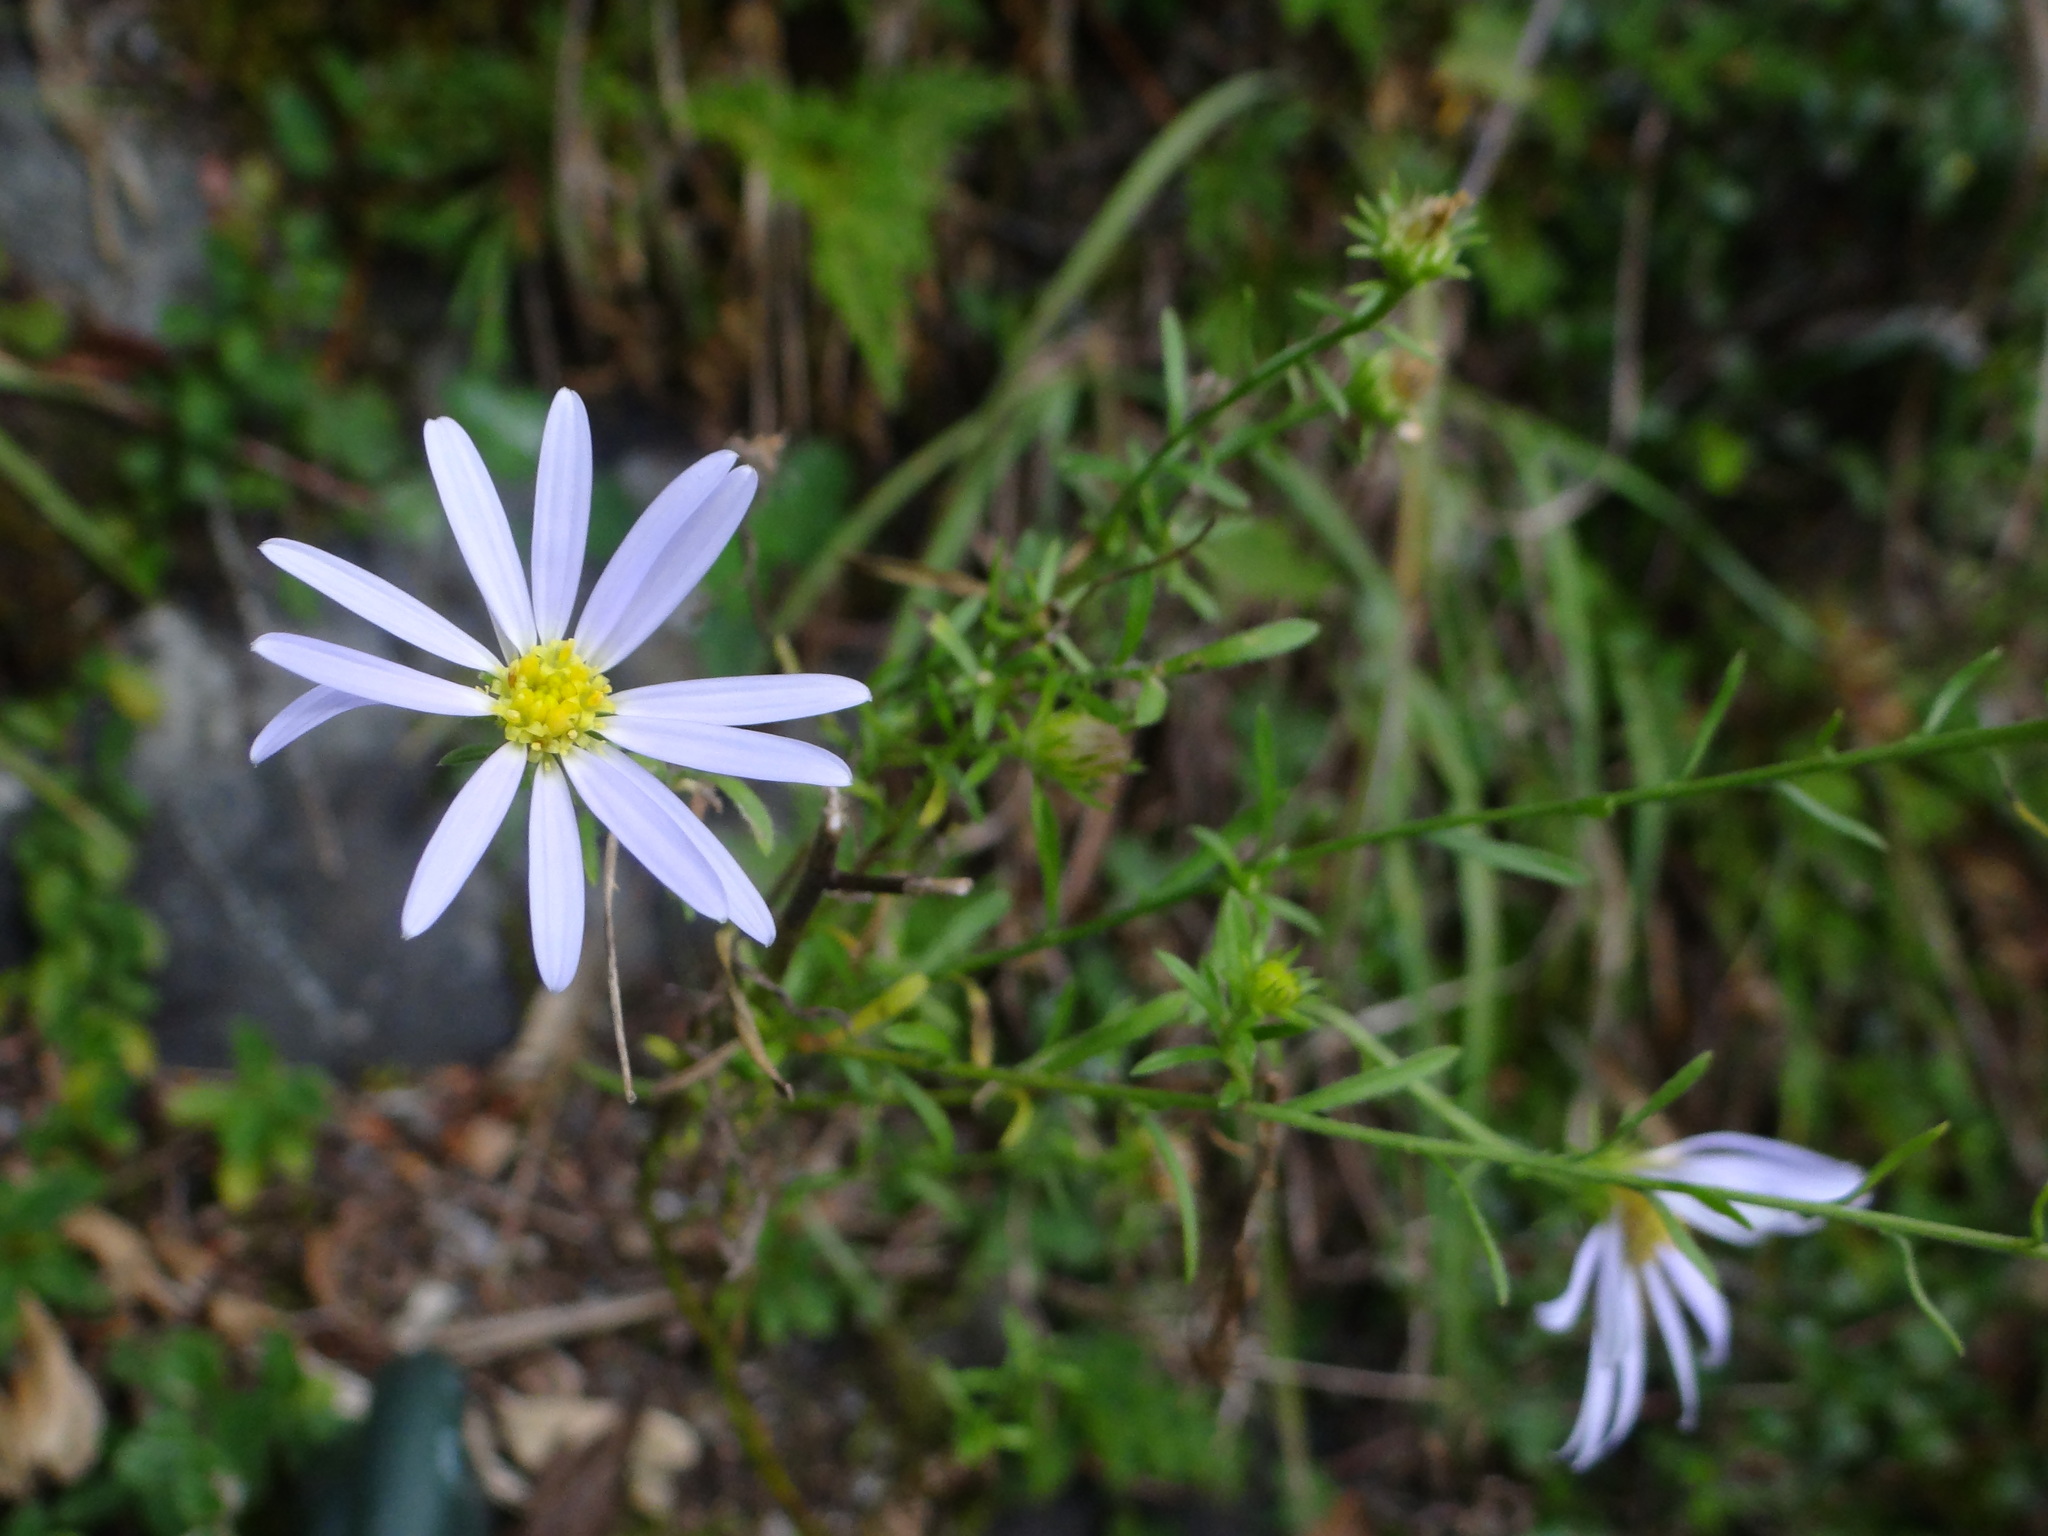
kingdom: Plantae
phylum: Tracheophyta
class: Magnoliopsida
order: Asterales
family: Asteraceae
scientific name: Asteraceae
